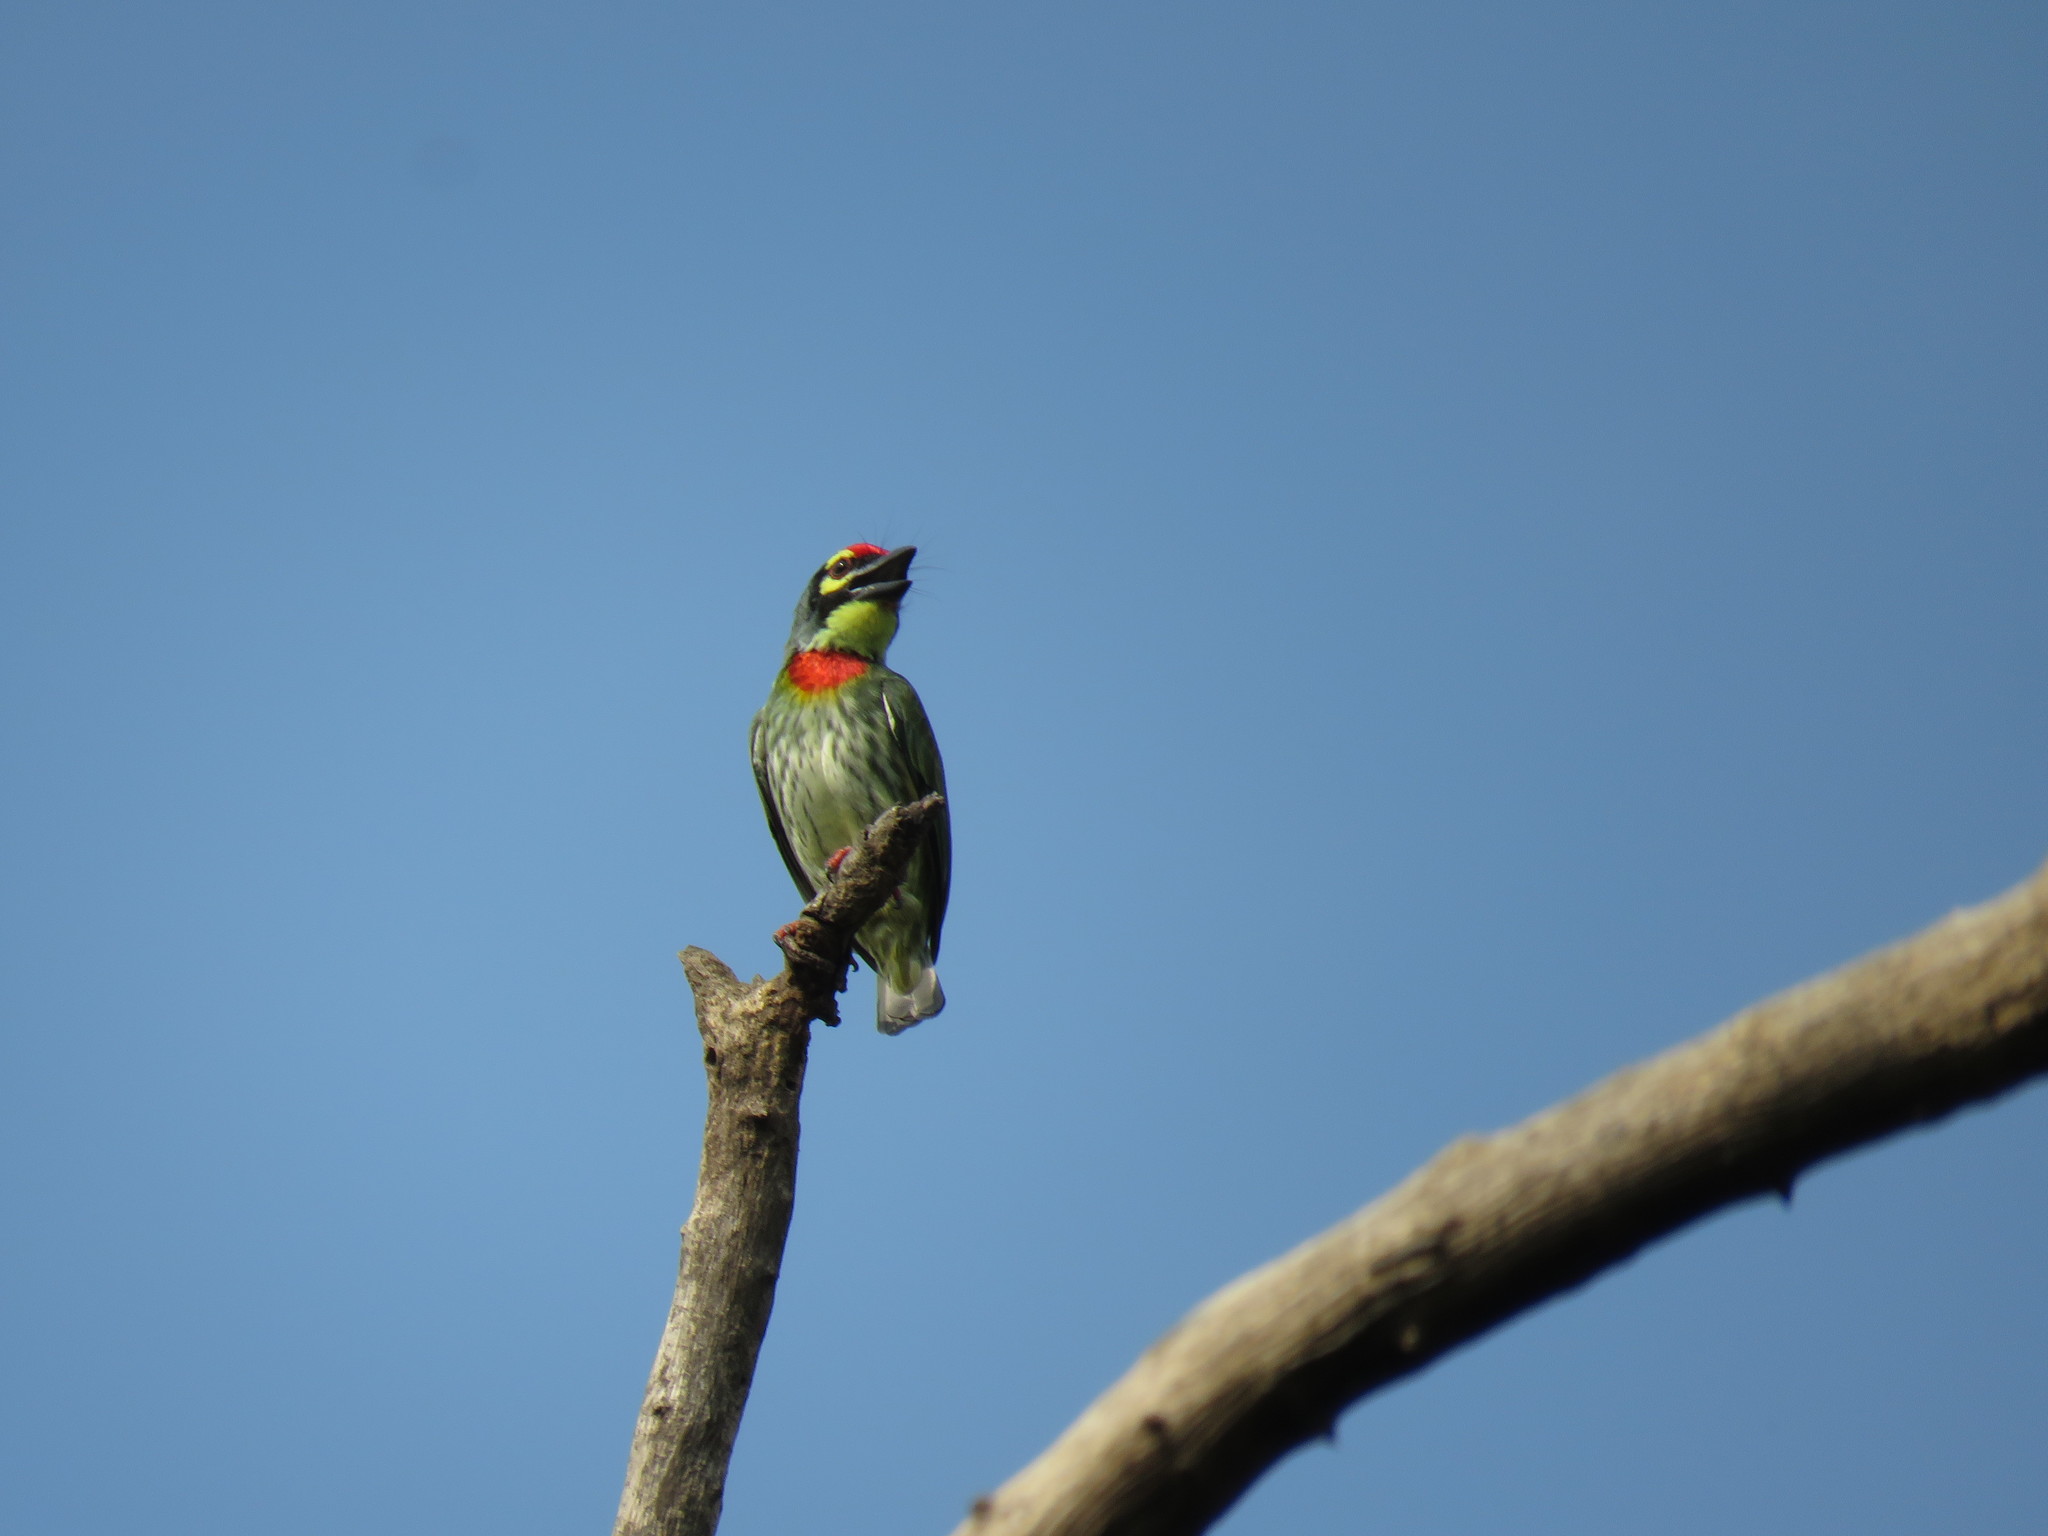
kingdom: Animalia
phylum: Chordata
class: Aves
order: Piciformes
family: Megalaimidae
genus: Psilopogon
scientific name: Psilopogon haemacephalus
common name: Coppersmith barbet
